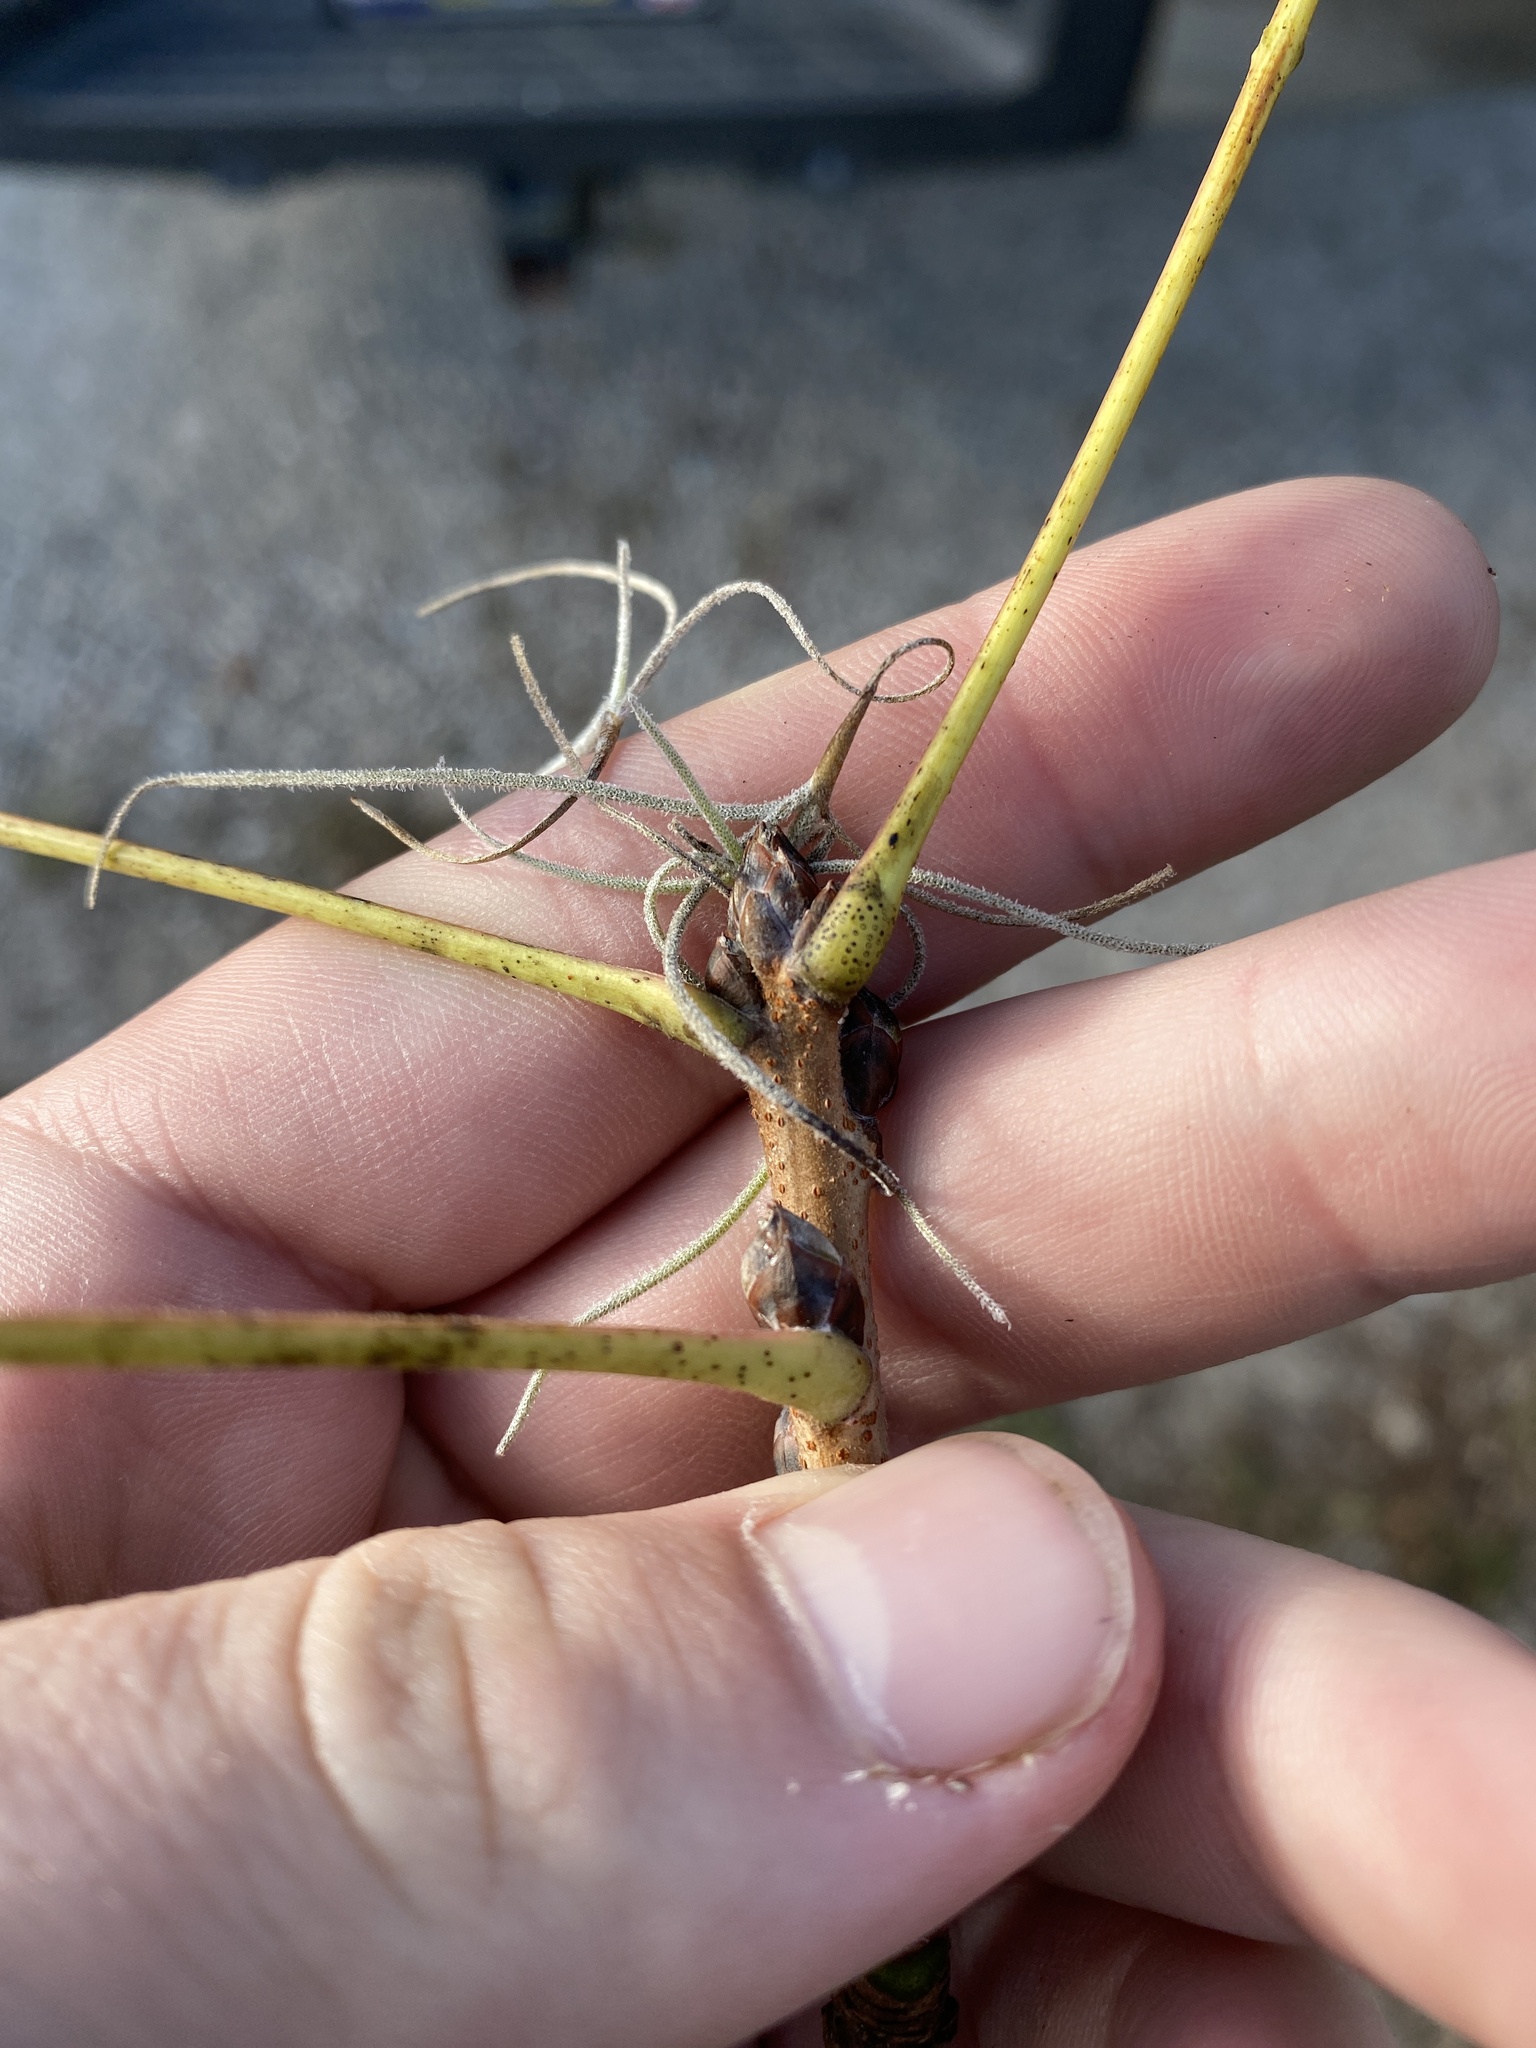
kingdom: Plantae
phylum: Tracheophyta
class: Magnoliopsida
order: Sapindales
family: Sapindaceae
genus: Sapindus
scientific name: Sapindus saponaria
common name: Wingleaf soapberry
